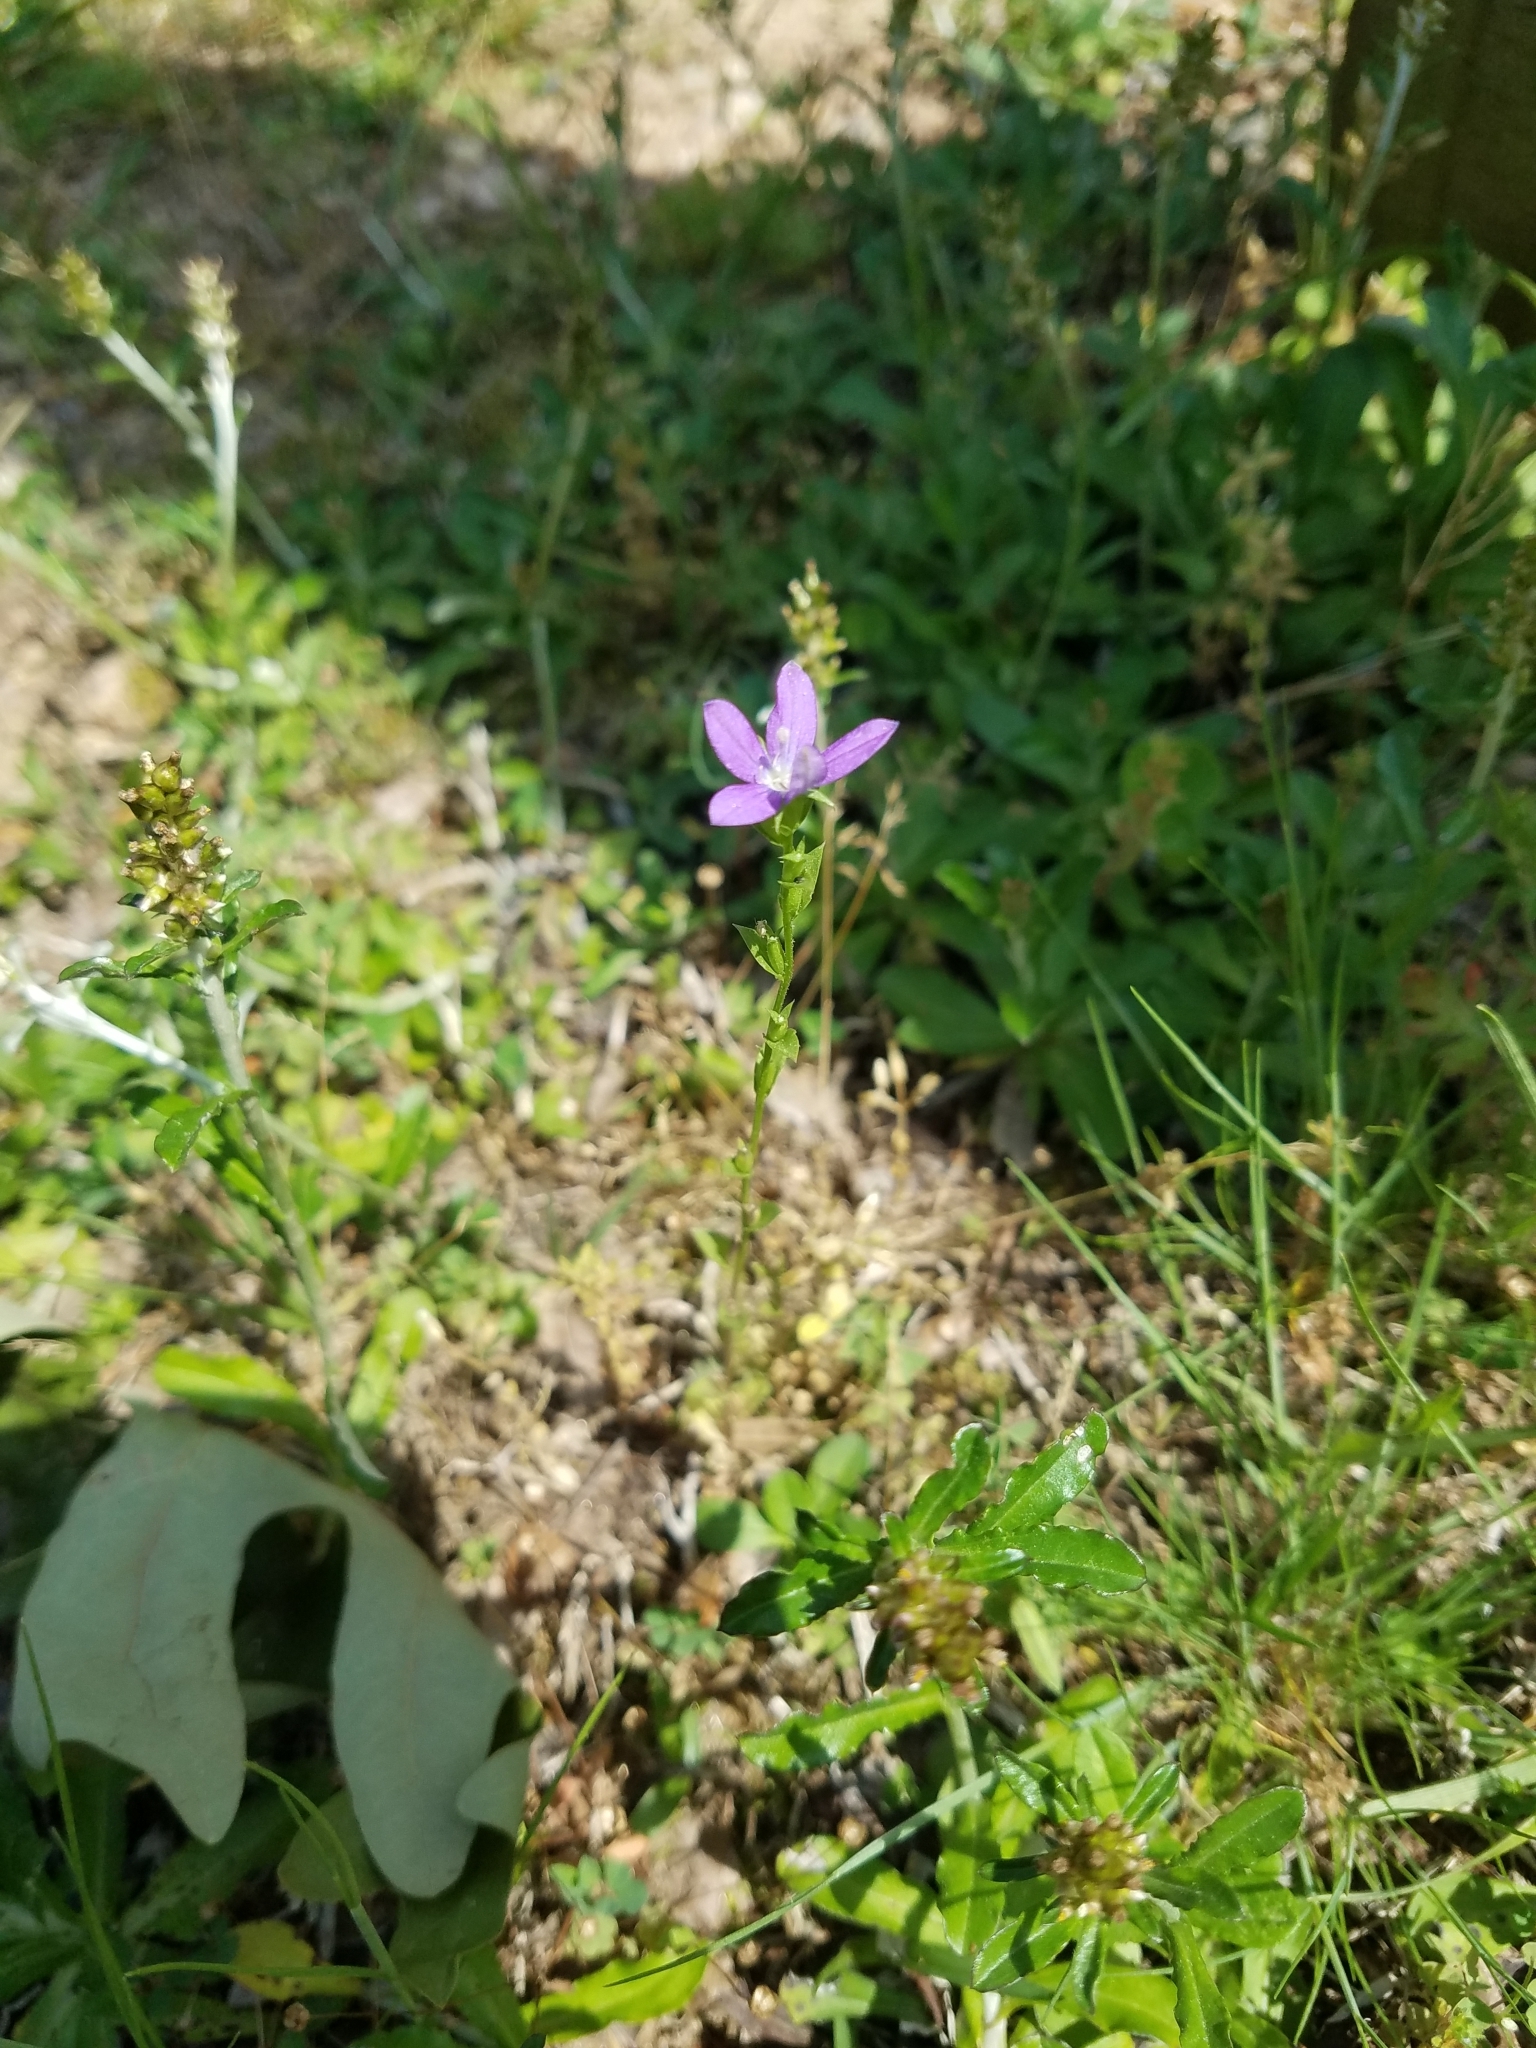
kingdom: Plantae
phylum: Tracheophyta
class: Magnoliopsida
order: Asterales
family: Campanulaceae
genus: Triodanis
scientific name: Triodanis biflora
